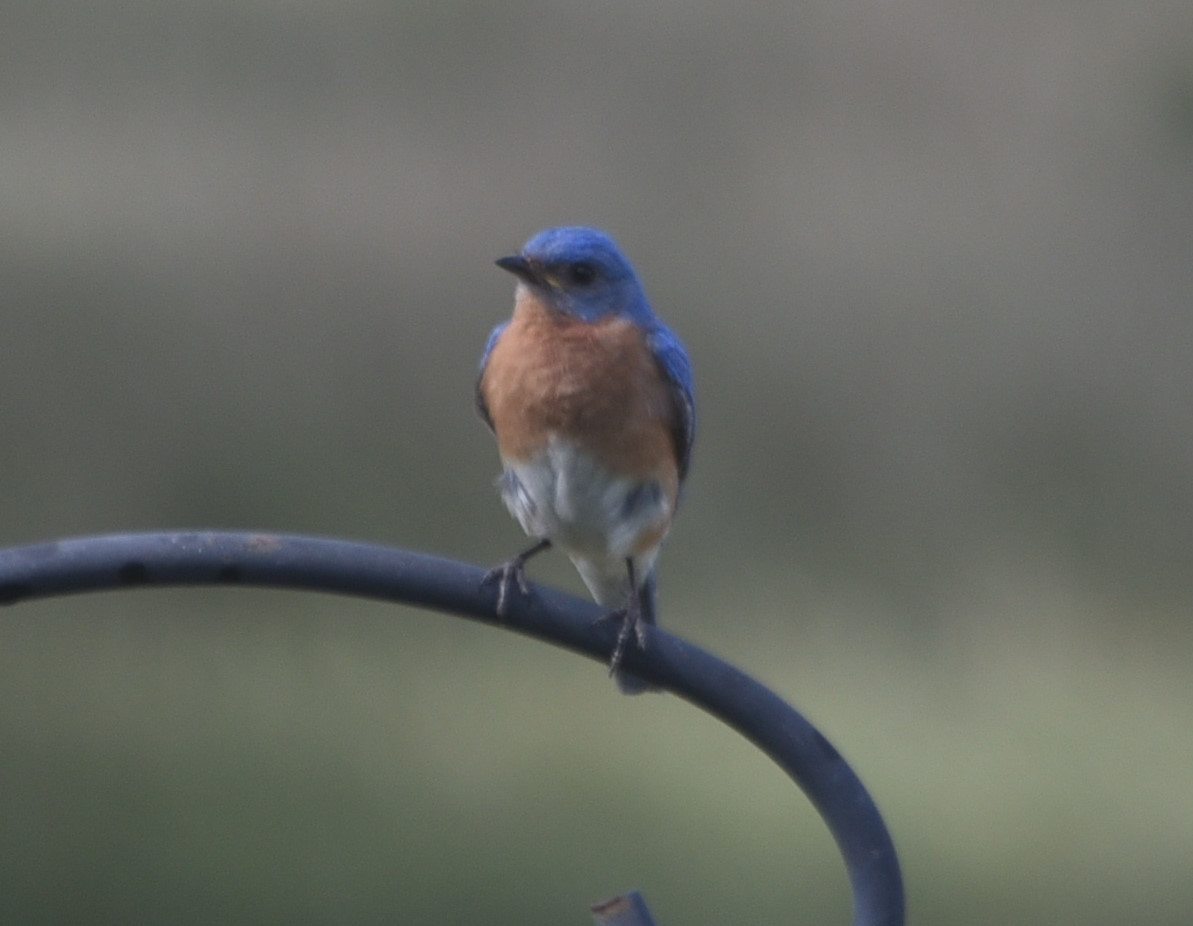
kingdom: Animalia
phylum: Chordata
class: Aves
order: Passeriformes
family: Turdidae
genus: Sialia
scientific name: Sialia sialis
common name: Eastern bluebird
